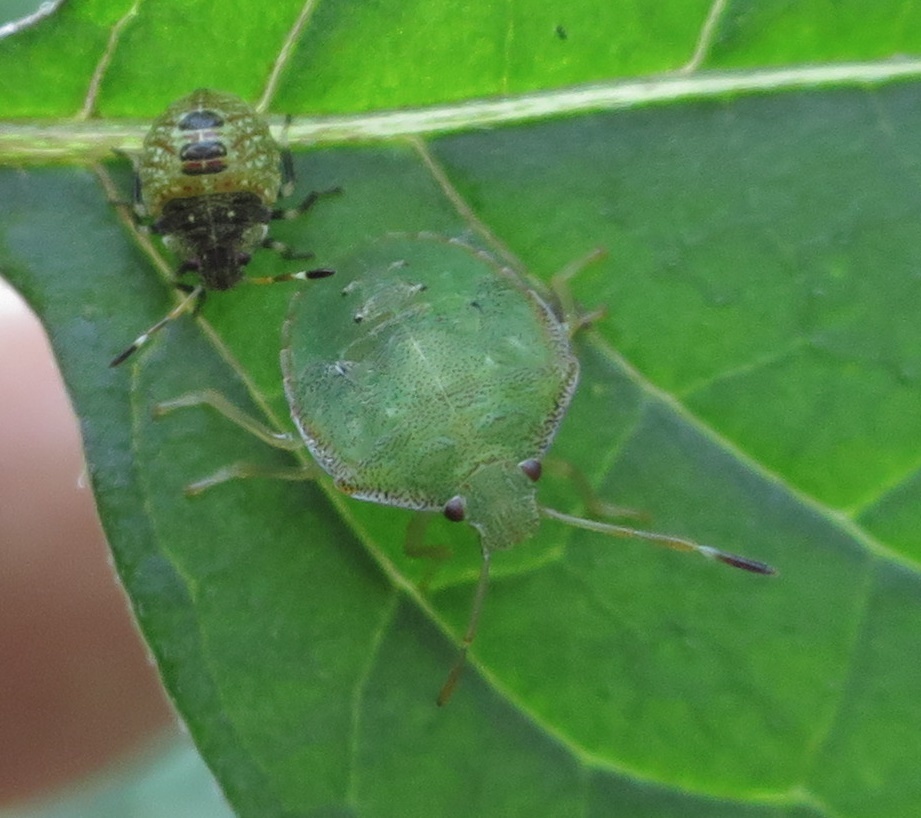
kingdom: Animalia
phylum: Arthropoda
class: Insecta
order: Hemiptera
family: Pentatomidae
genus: Cuspicona
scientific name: Cuspicona simplex
